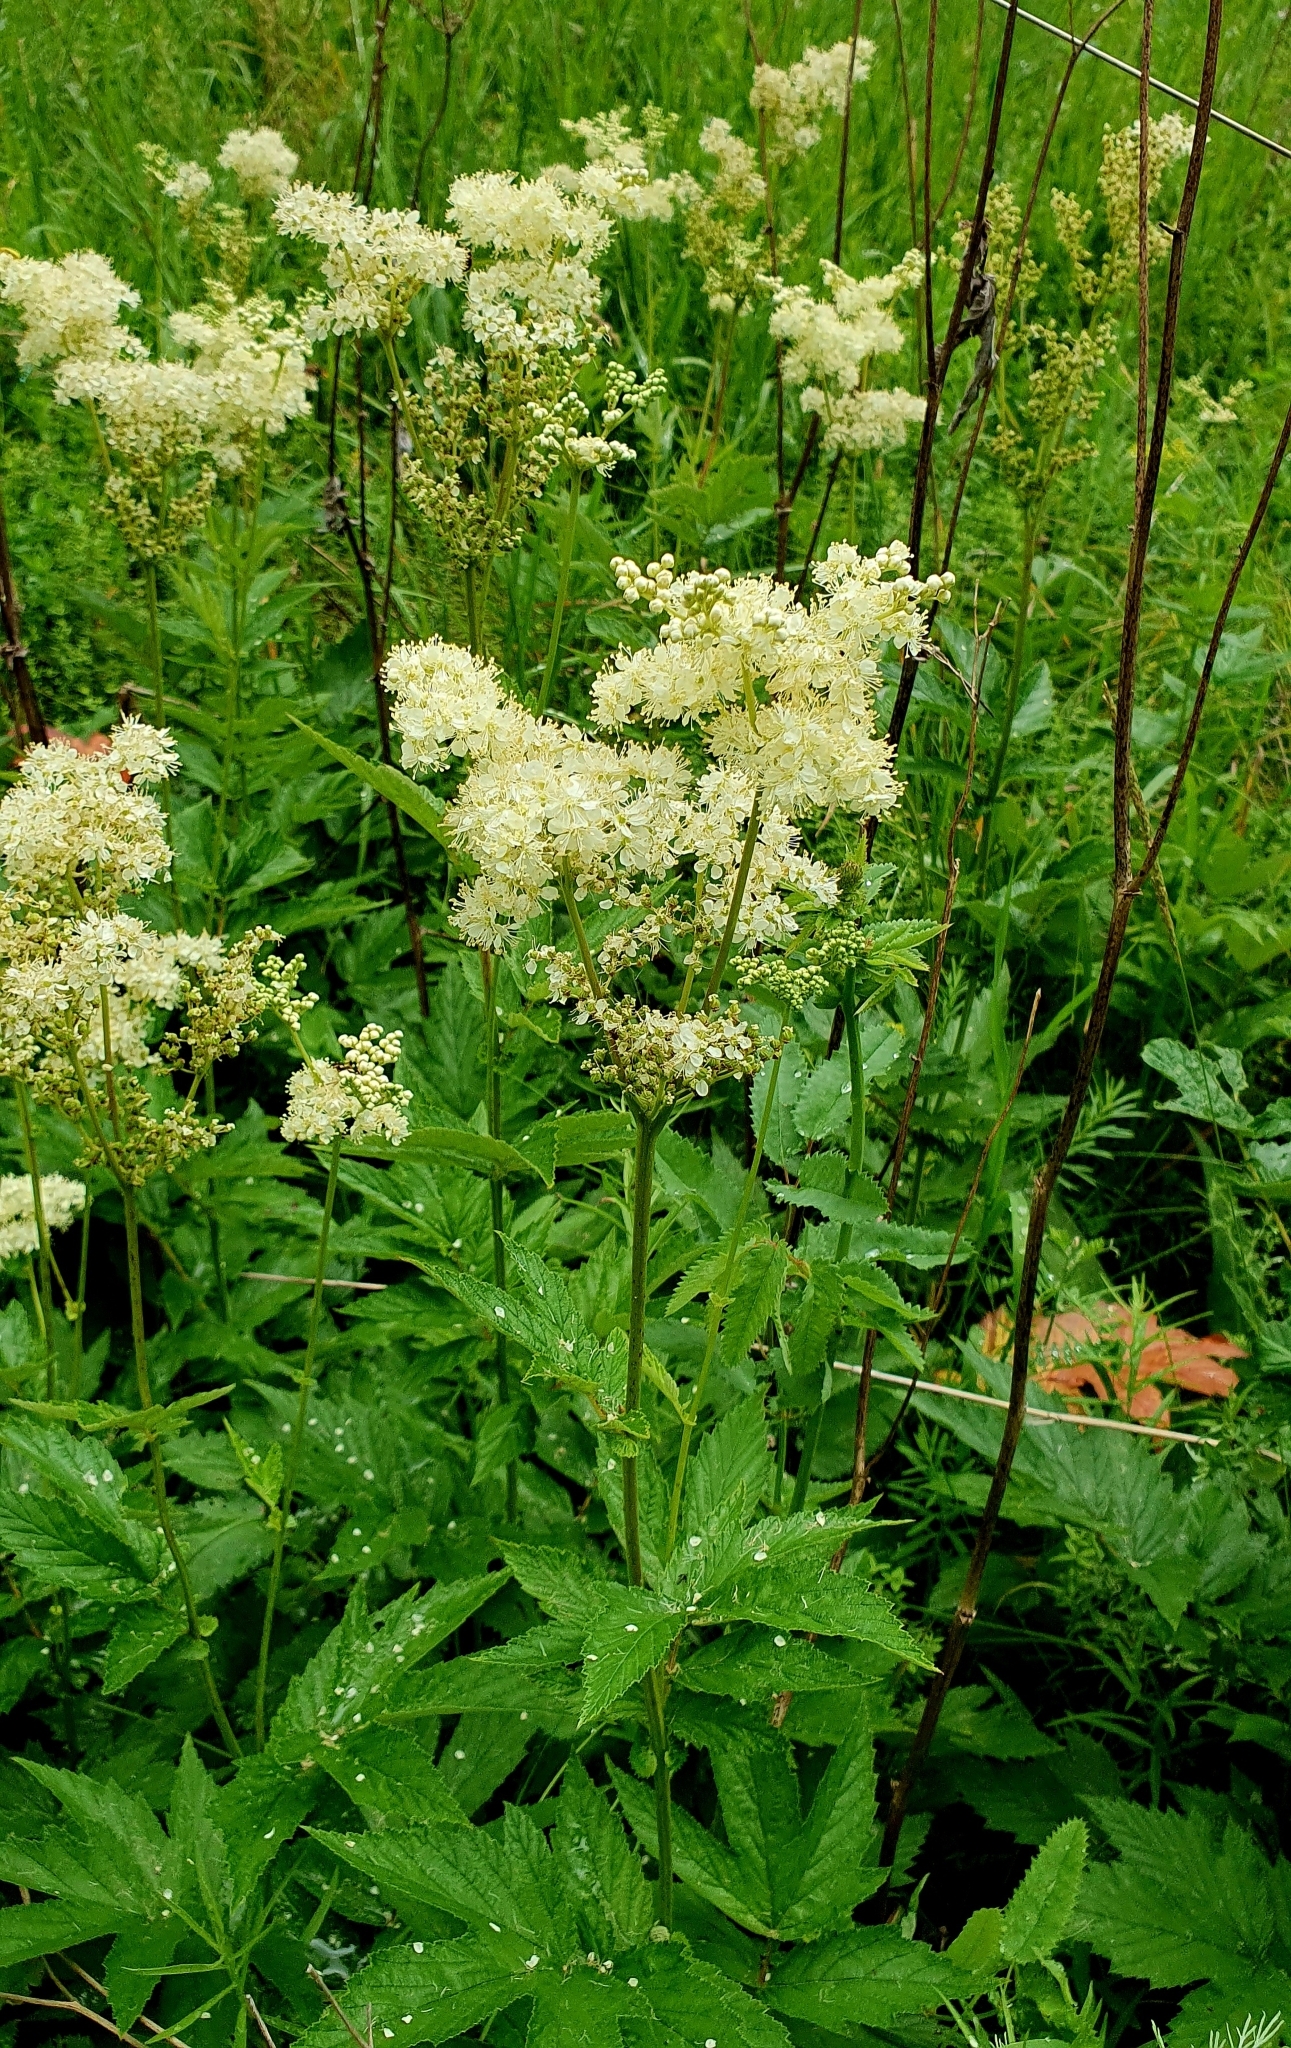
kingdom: Plantae
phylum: Tracheophyta
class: Magnoliopsida
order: Rosales
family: Rosaceae
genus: Filipendula
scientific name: Filipendula ulmaria
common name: Meadowsweet
